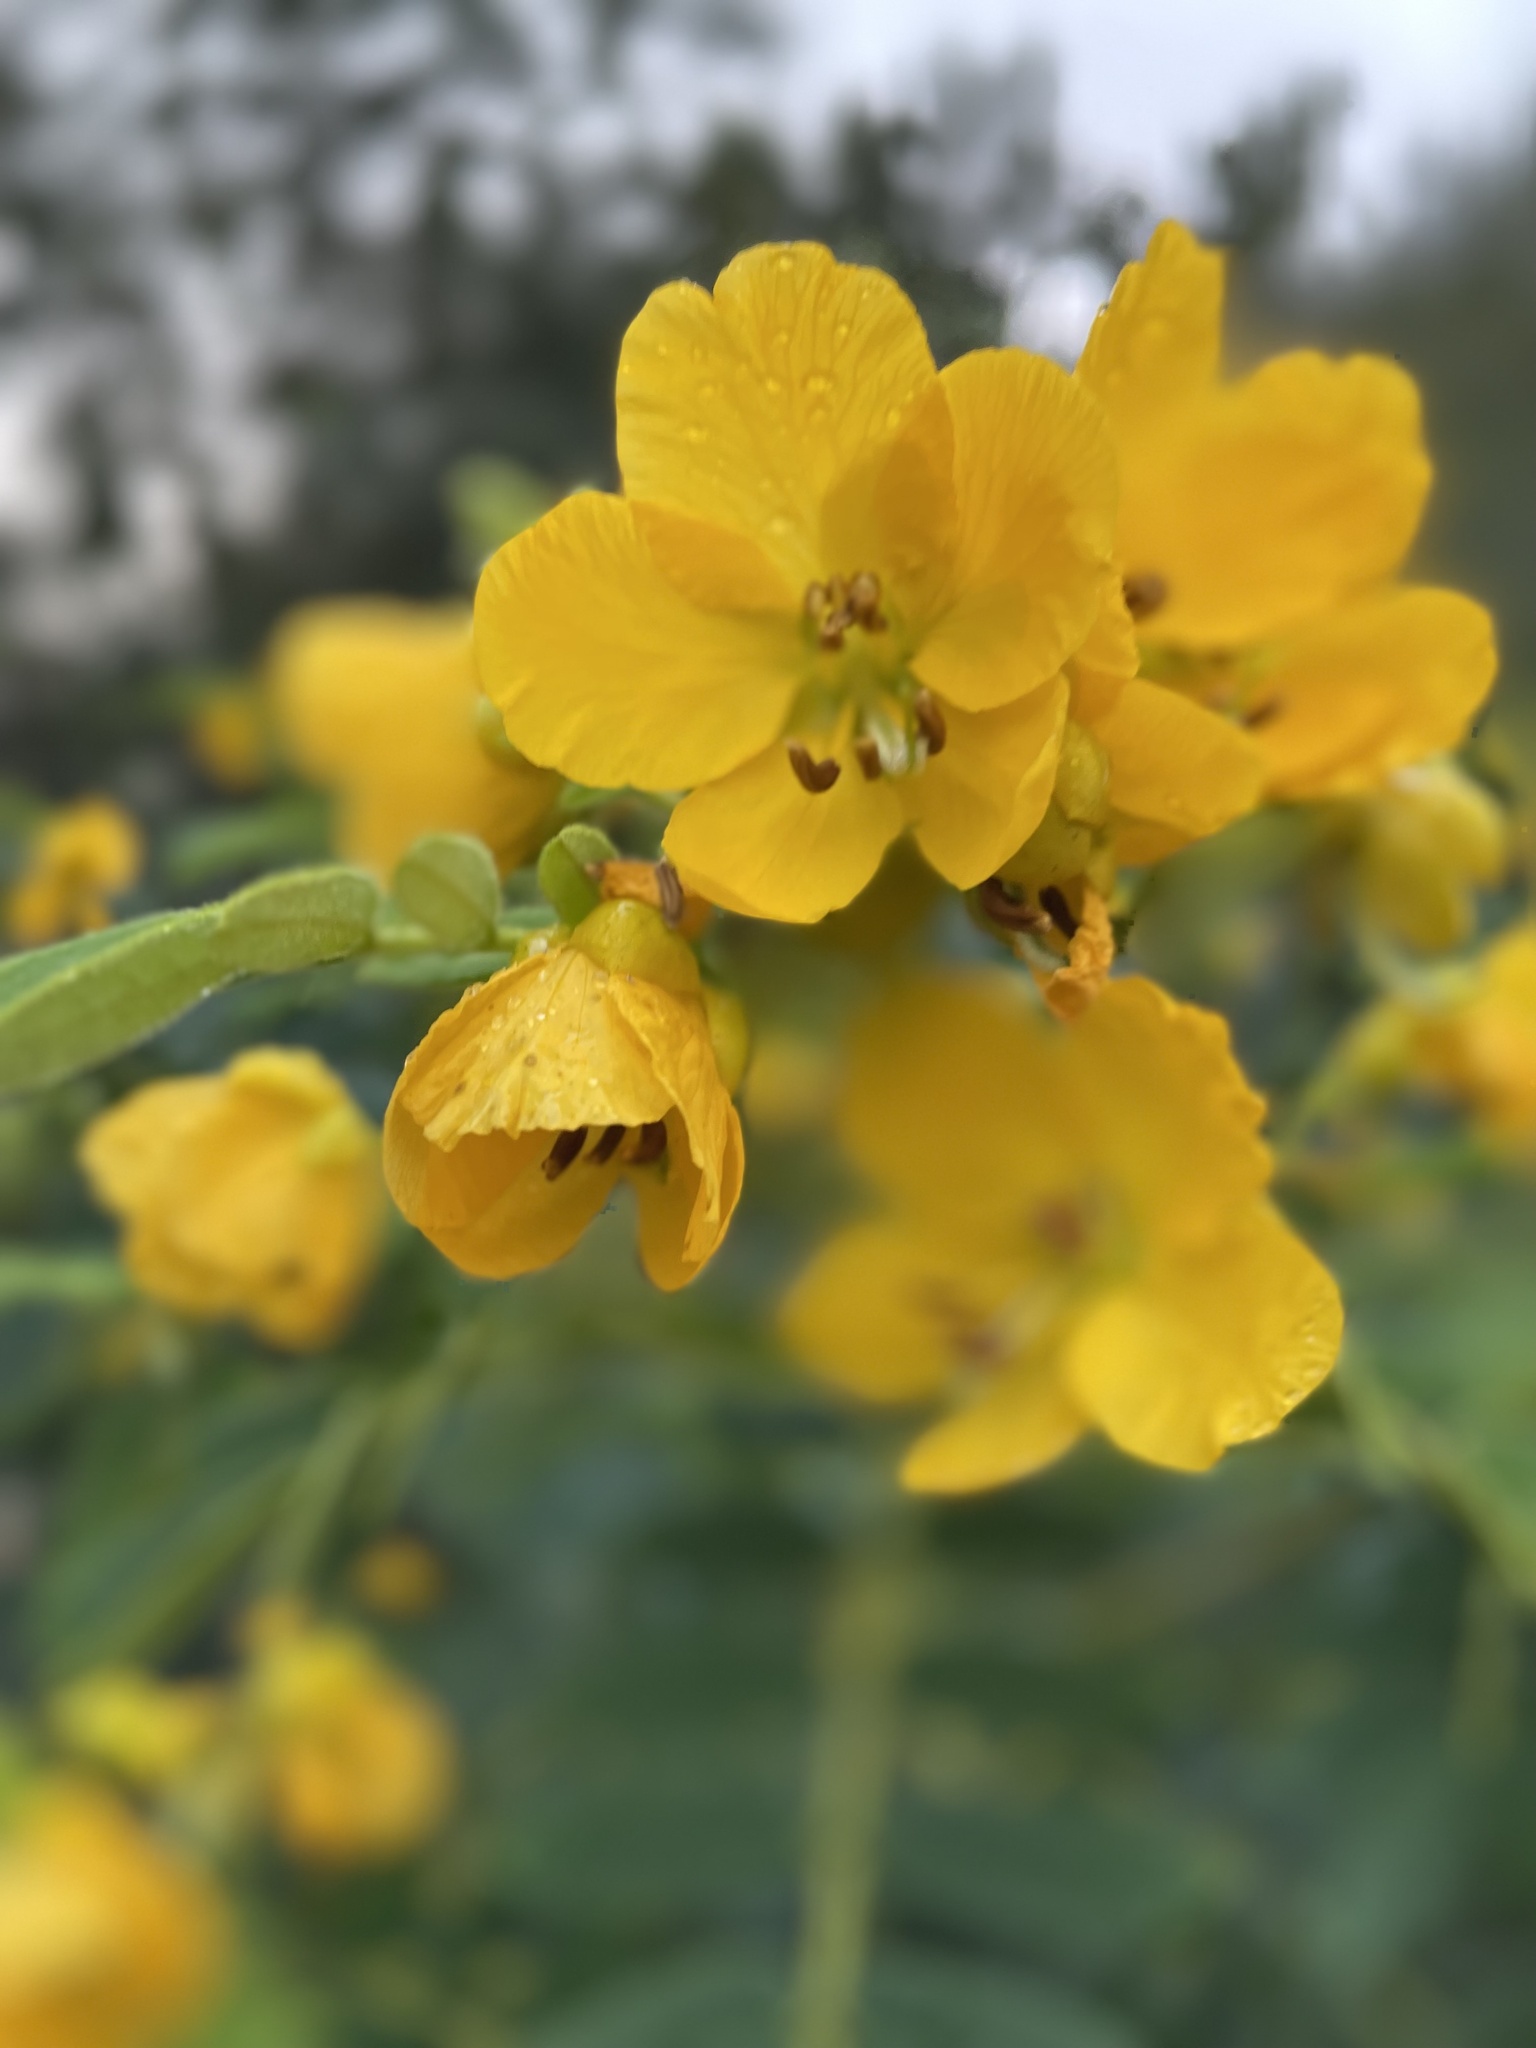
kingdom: Plantae
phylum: Tracheophyta
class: Magnoliopsida
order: Fabales
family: Fabaceae
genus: Senna
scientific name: Senna multiglandulosa
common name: Glandular senna
